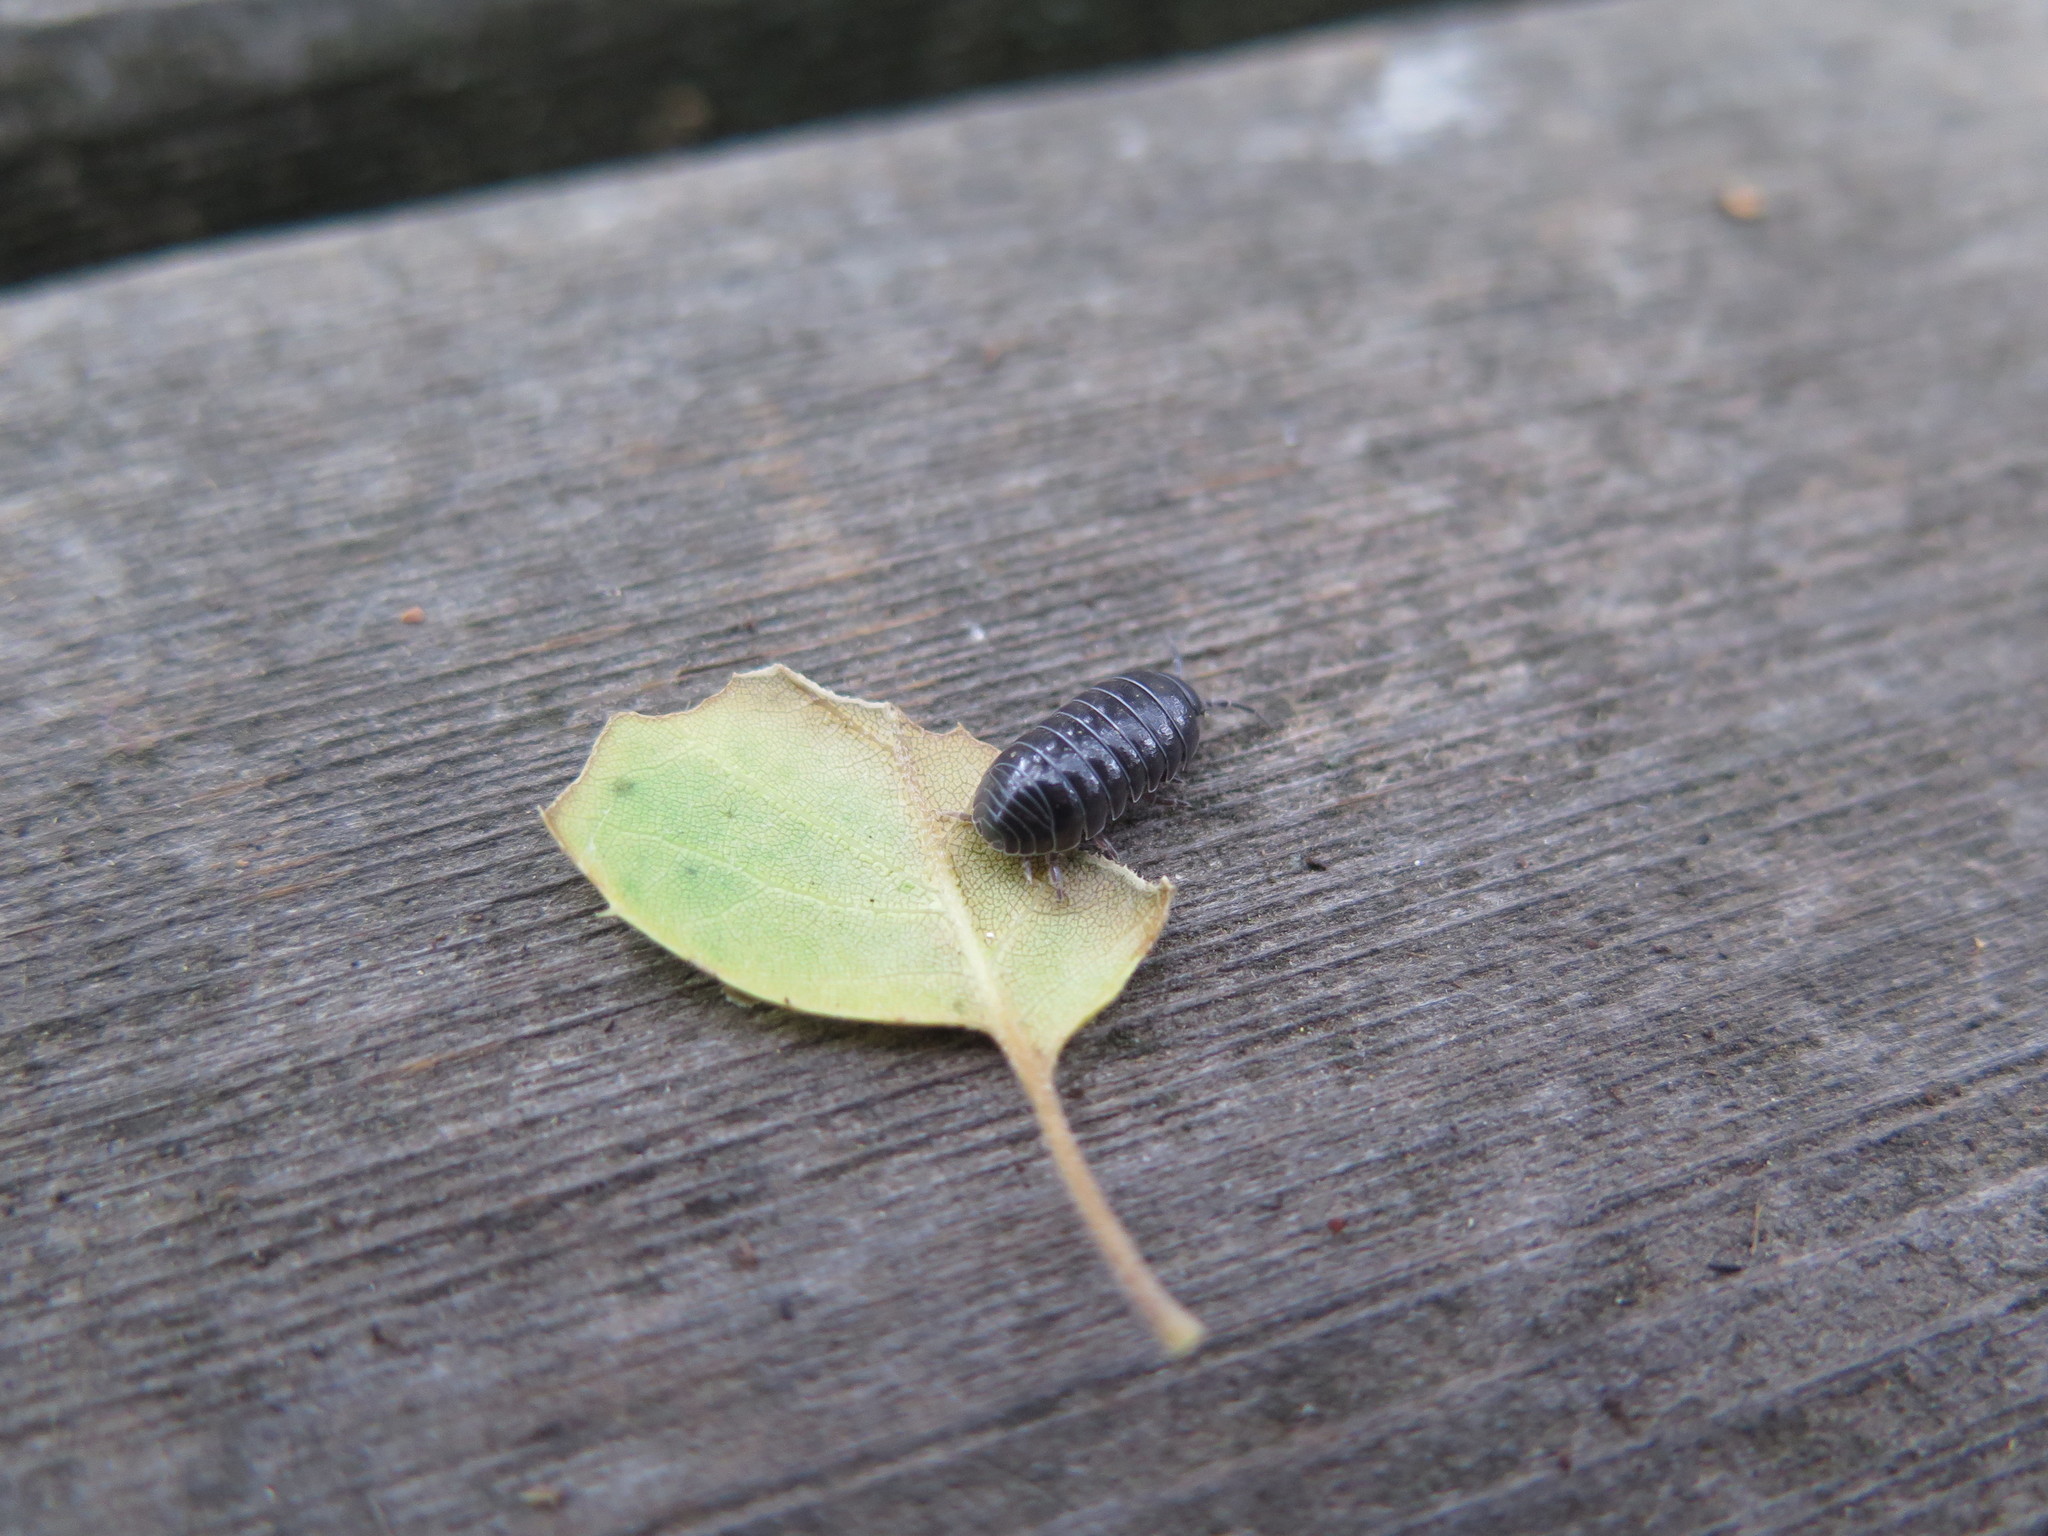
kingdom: Animalia
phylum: Arthropoda
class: Malacostraca
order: Isopoda
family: Armadillidiidae
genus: Armadillidium
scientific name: Armadillidium vulgare
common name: Common pill woodlouse
